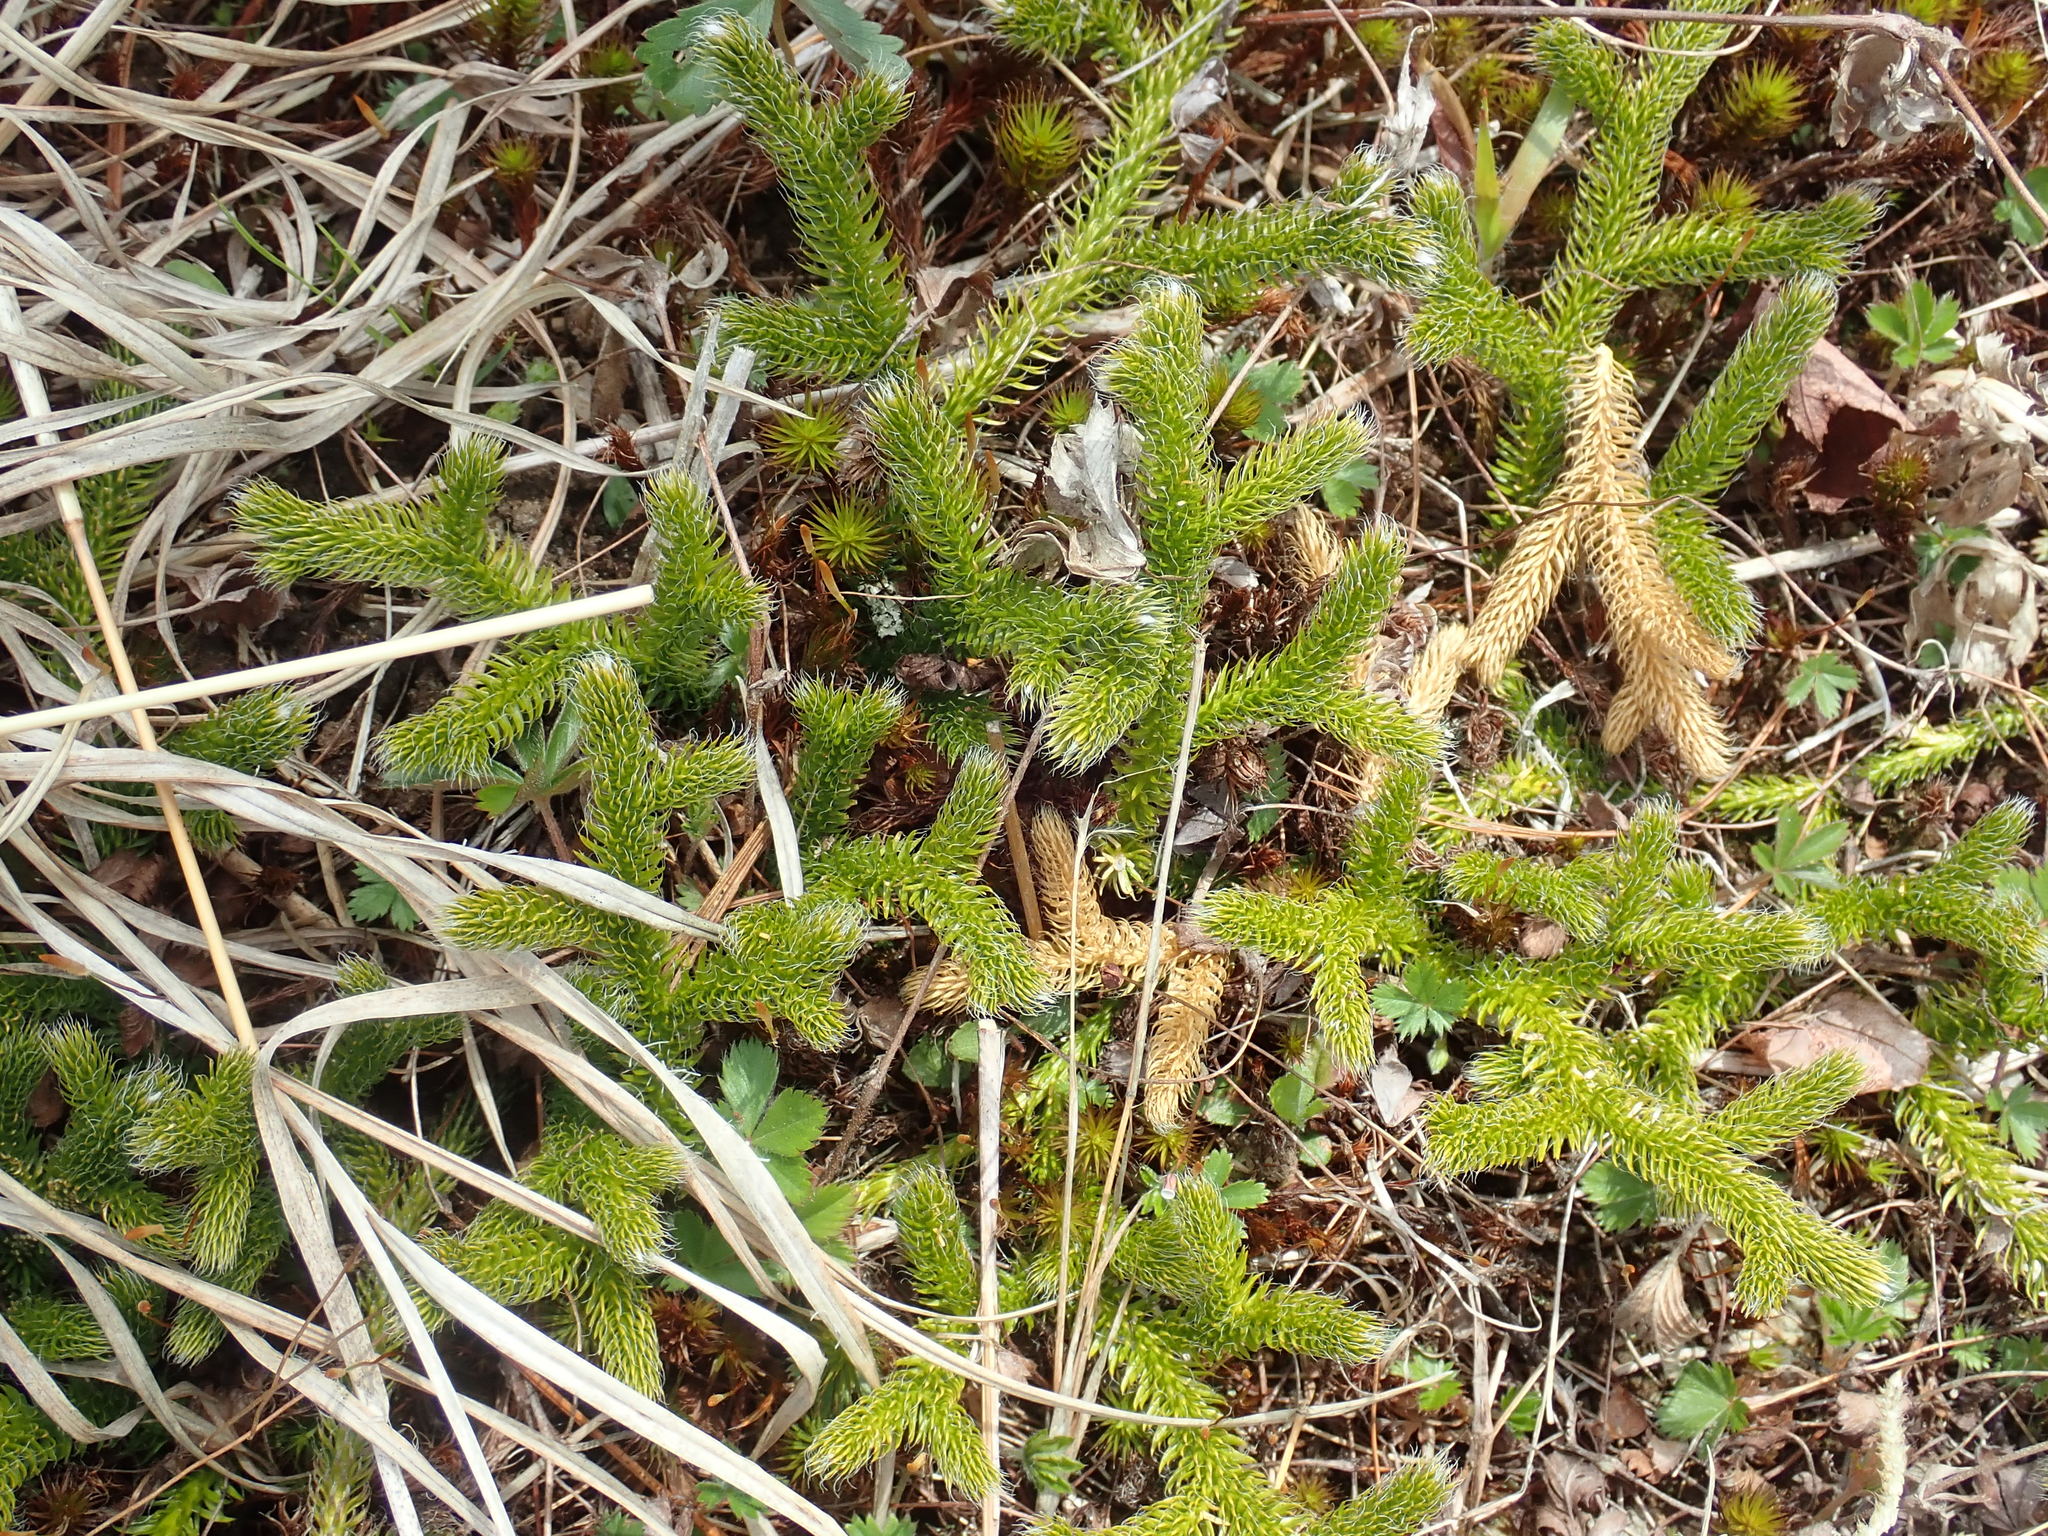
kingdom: Plantae
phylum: Tracheophyta
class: Lycopodiopsida
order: Lycopodiales
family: Lycopodiaceae
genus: Lycopodium
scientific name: Lycopodium clavatum
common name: Stag's-horn clubmoss
